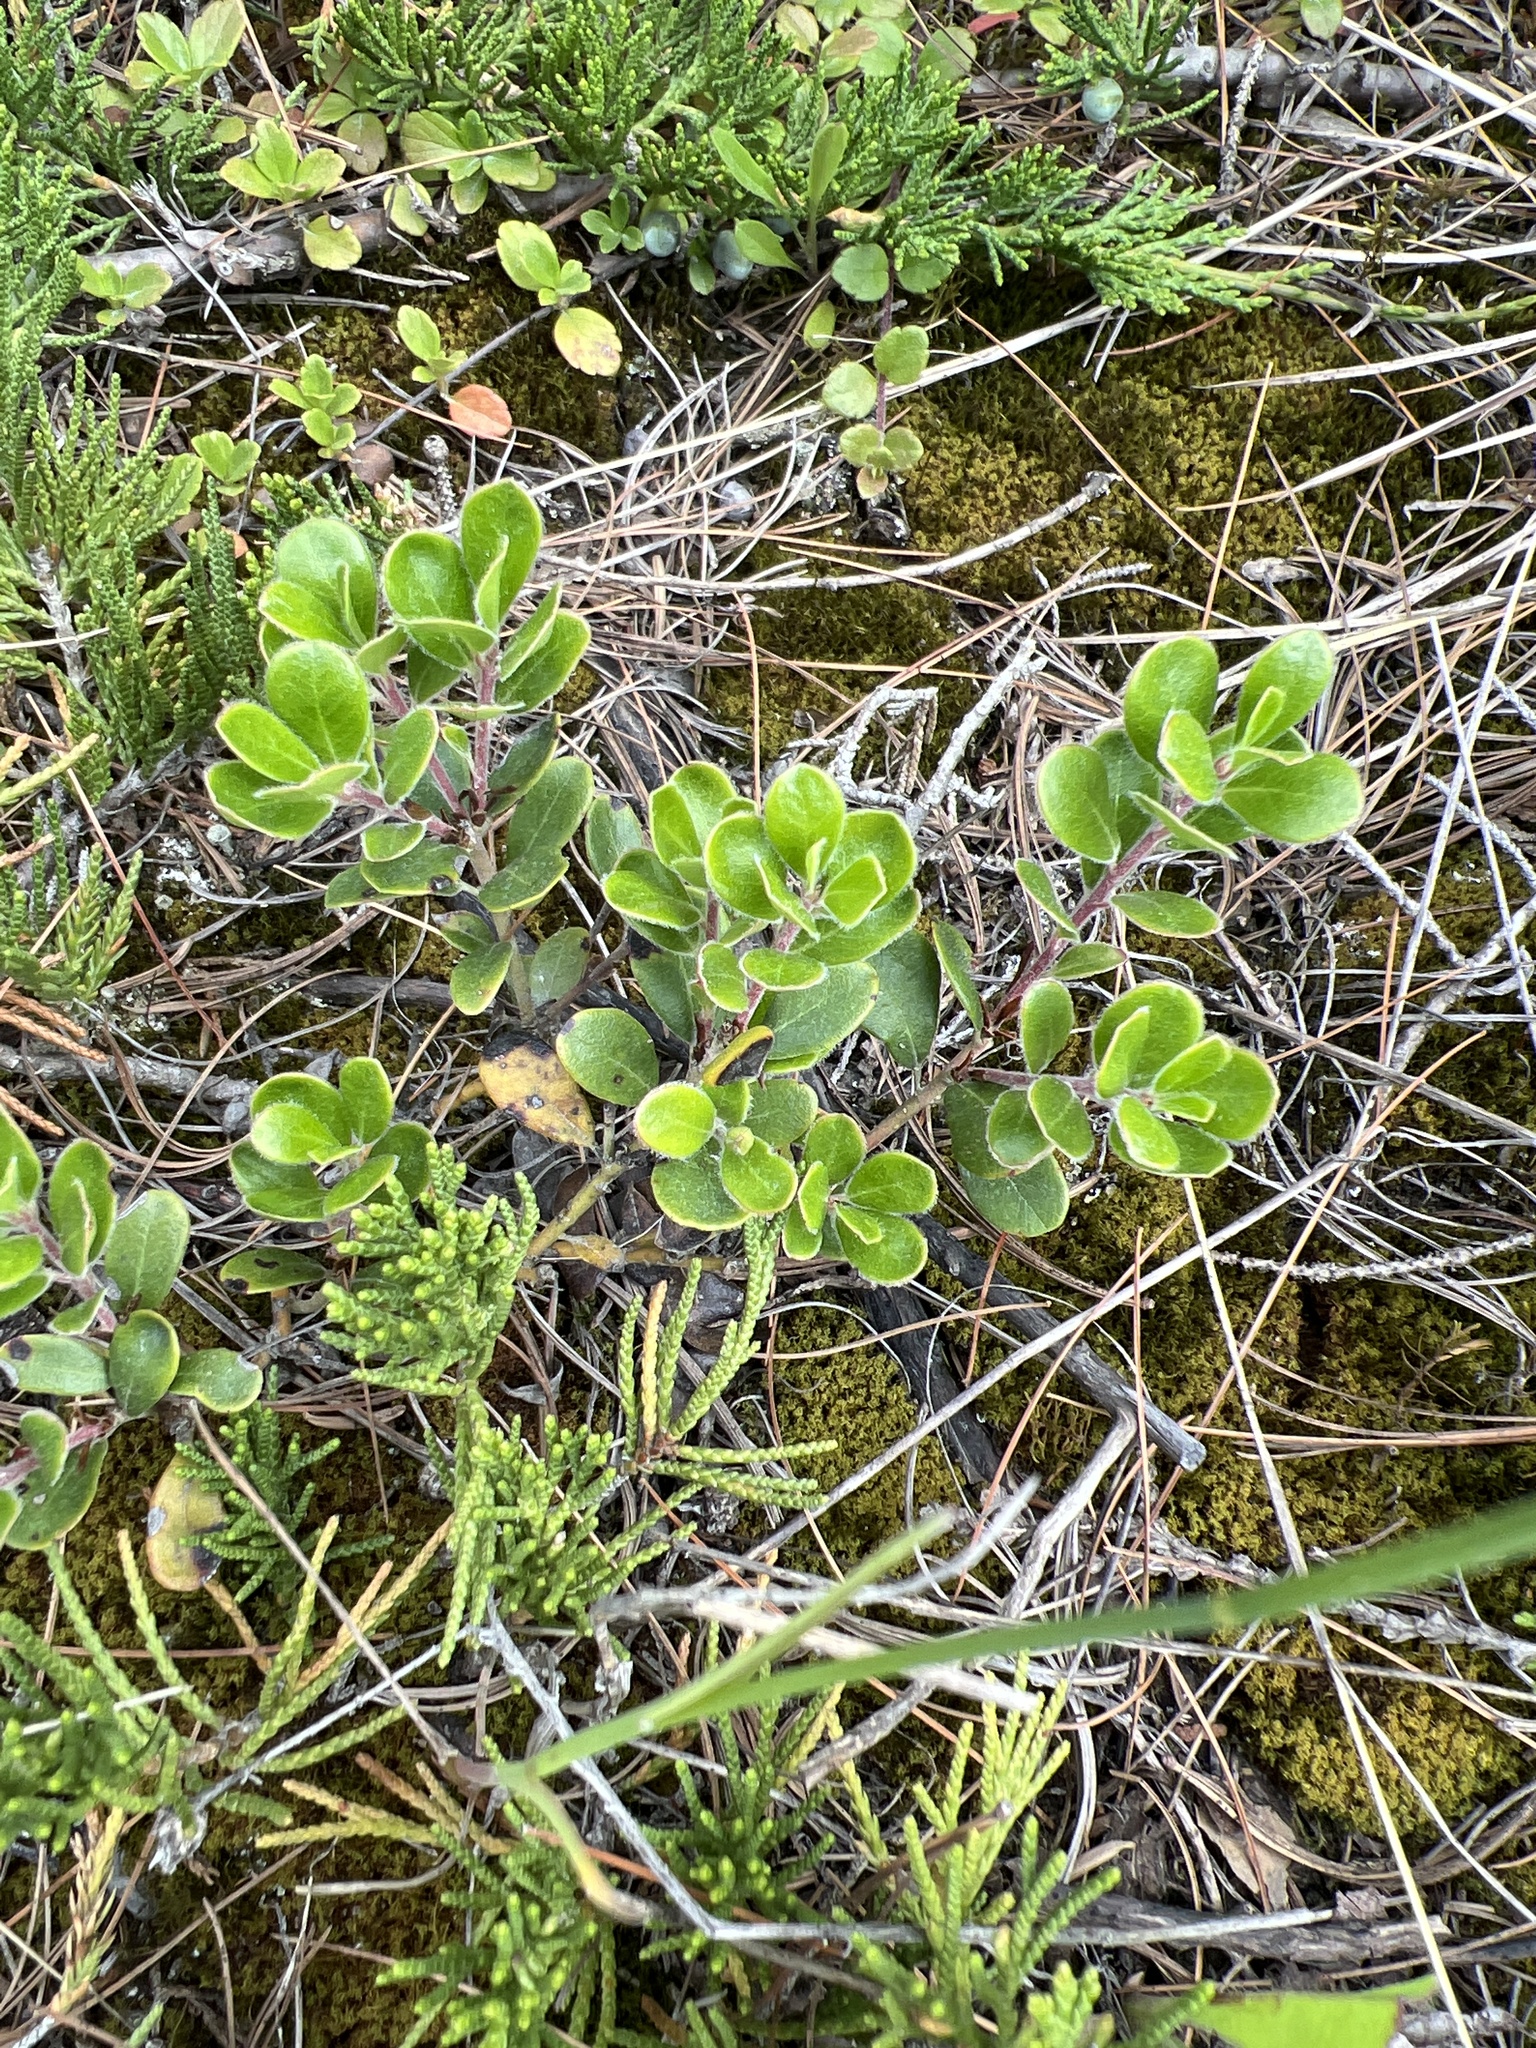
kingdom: Plantae
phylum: Tracheophyta
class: Magnoliopsida
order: Ericales
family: Ericaceae
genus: Arctostaphylos
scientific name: Arctostaphylos uva-ursi
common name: Bearberry
